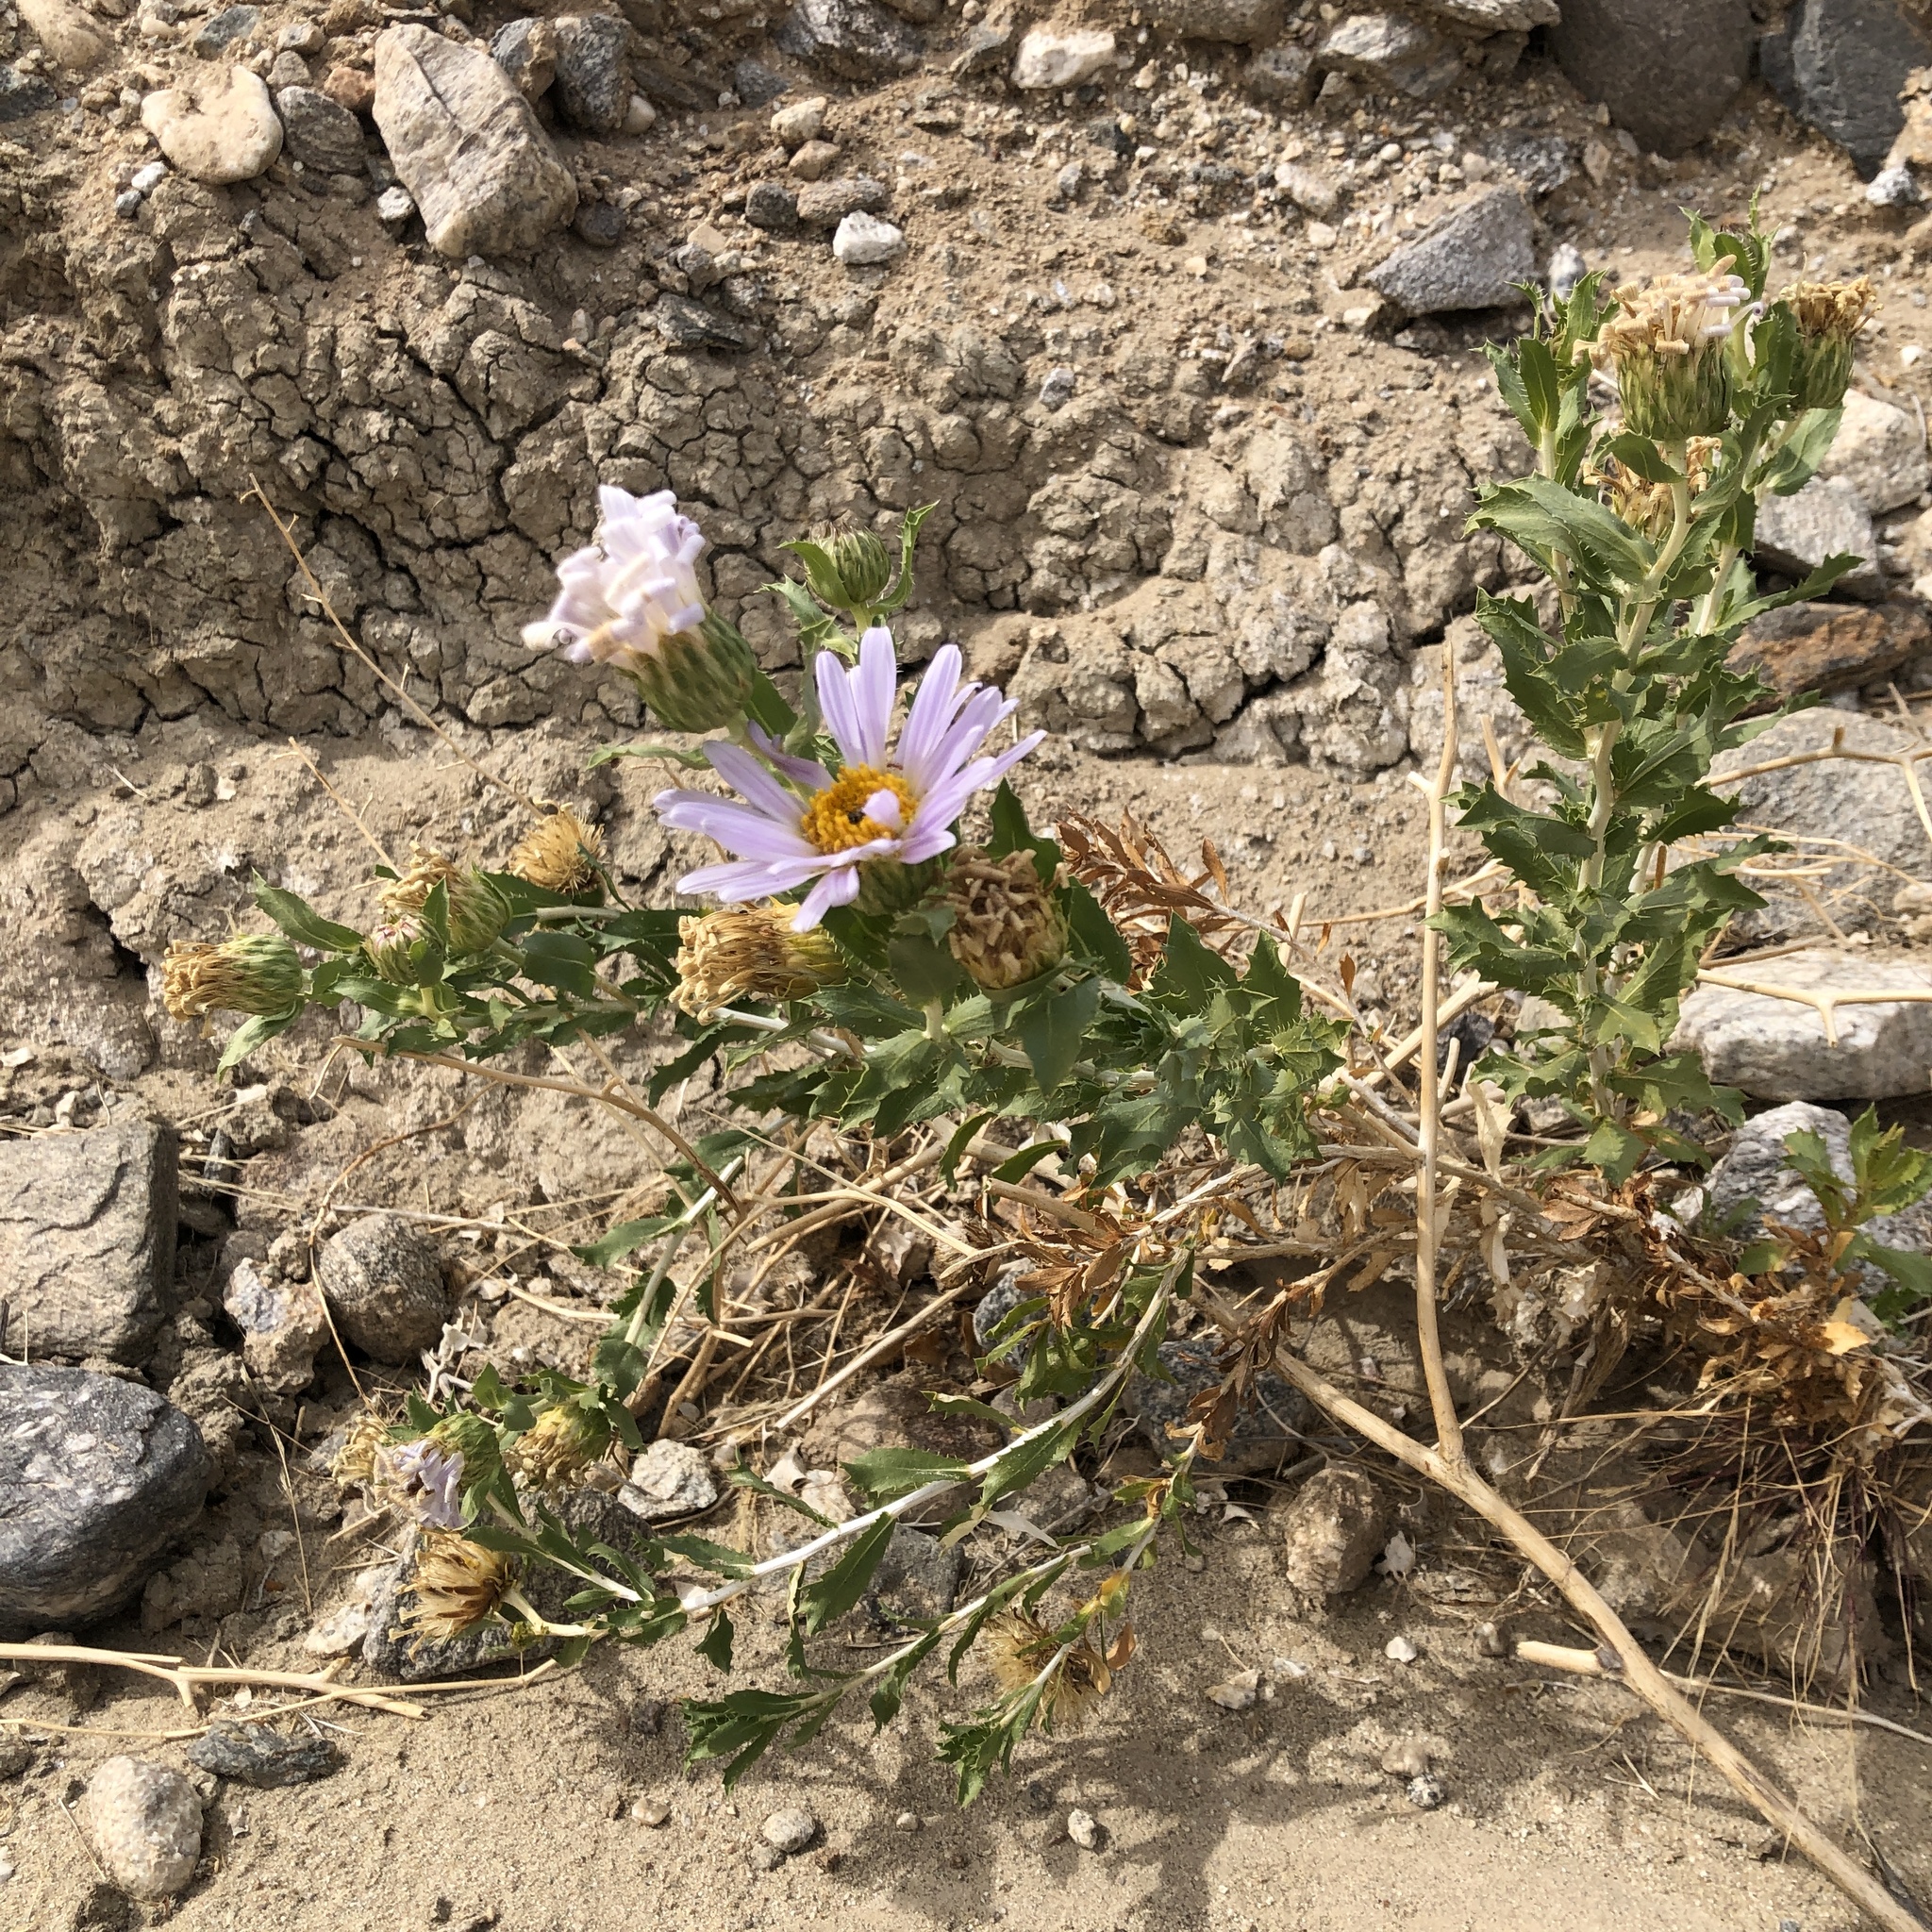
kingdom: Plantae
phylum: Tracheophyta
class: Magnoliopsida
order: Asterales
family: Asteraceae
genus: Xylorhiza
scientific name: Xylorhiza orcuttii
